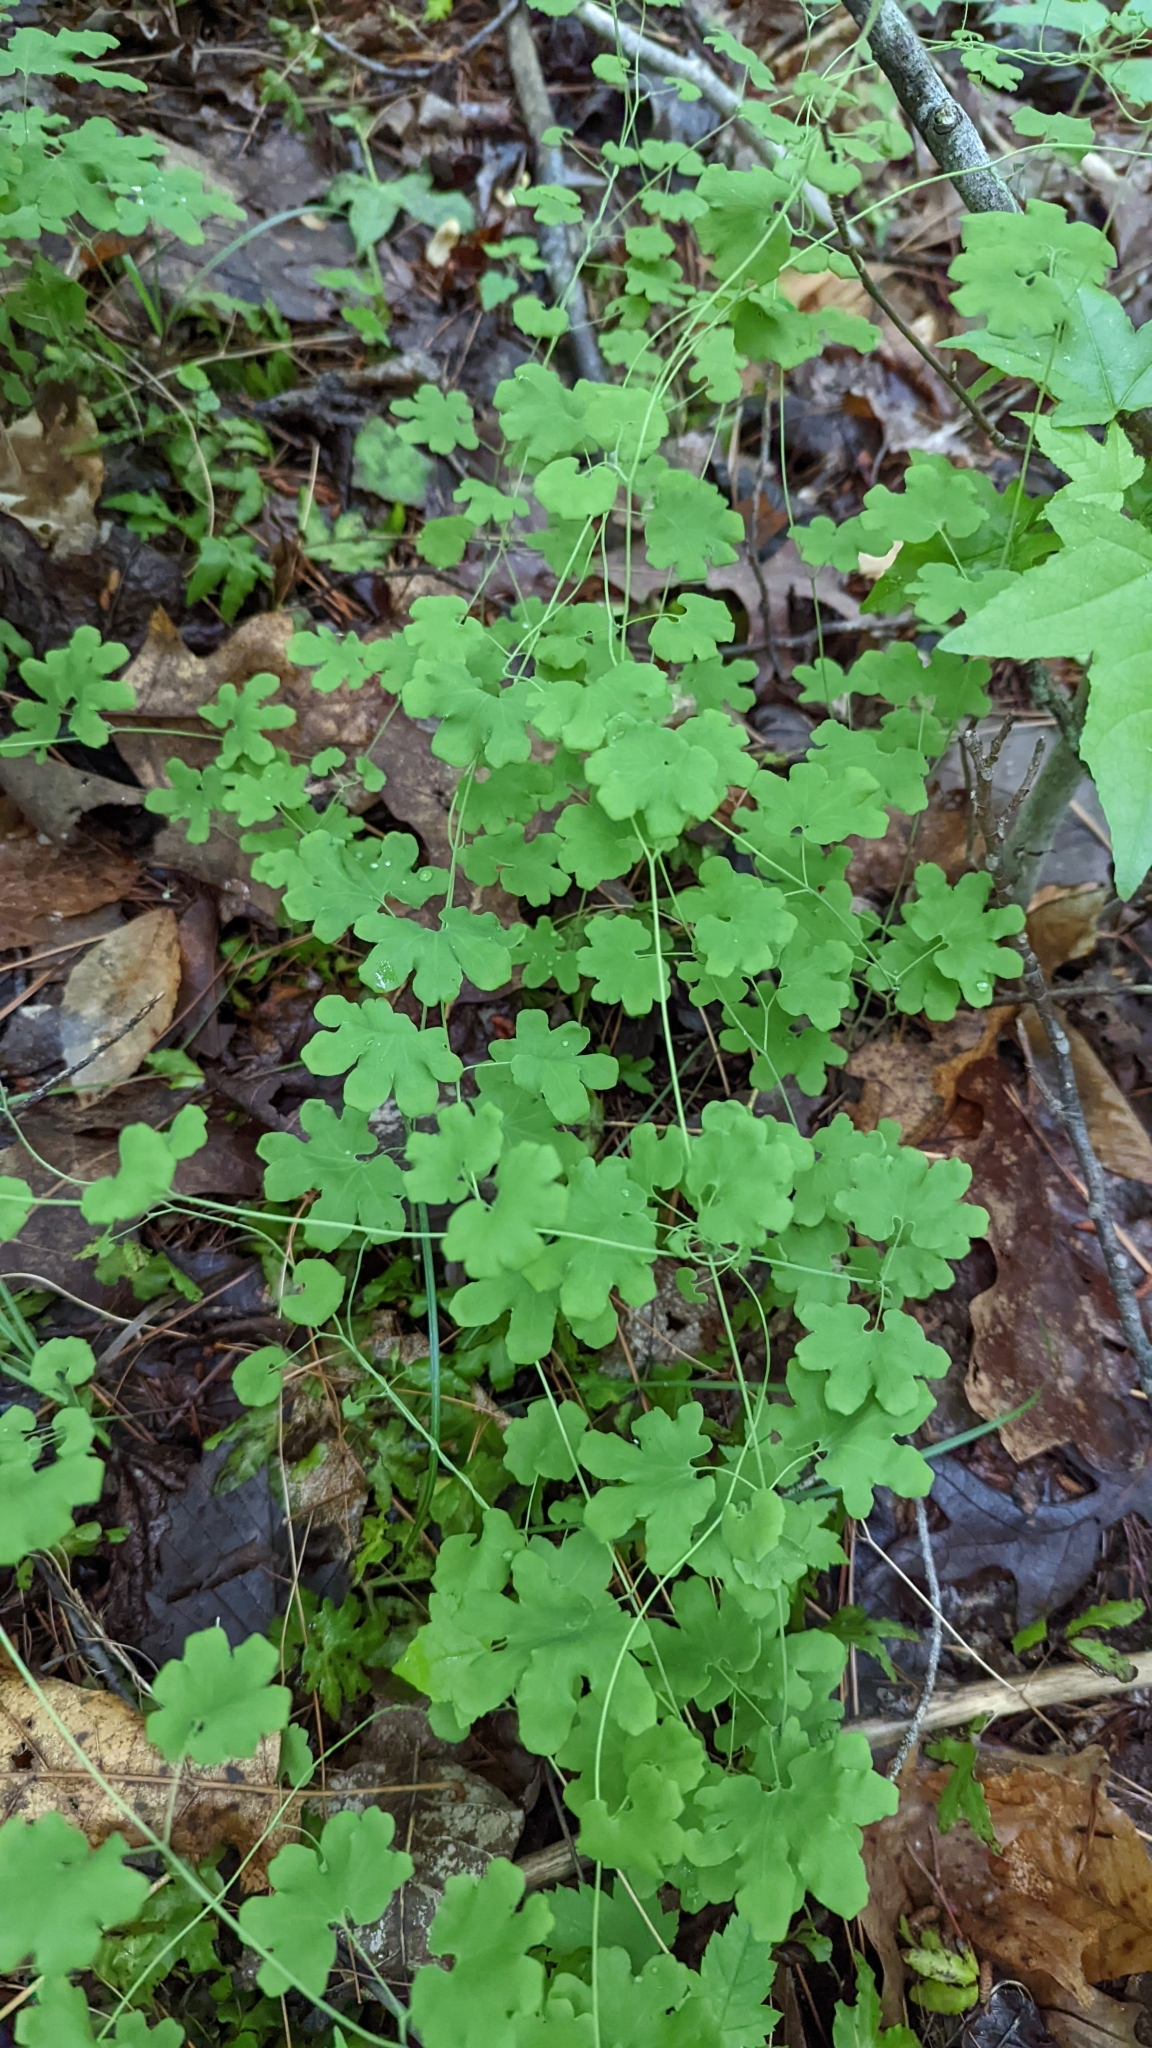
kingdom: Plantae
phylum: Tracheophyta
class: Polypodiopsida
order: Schizaeales
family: Lygodiaceae
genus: Lygodium
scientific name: Lygodium palmatum
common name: American climbing fern
